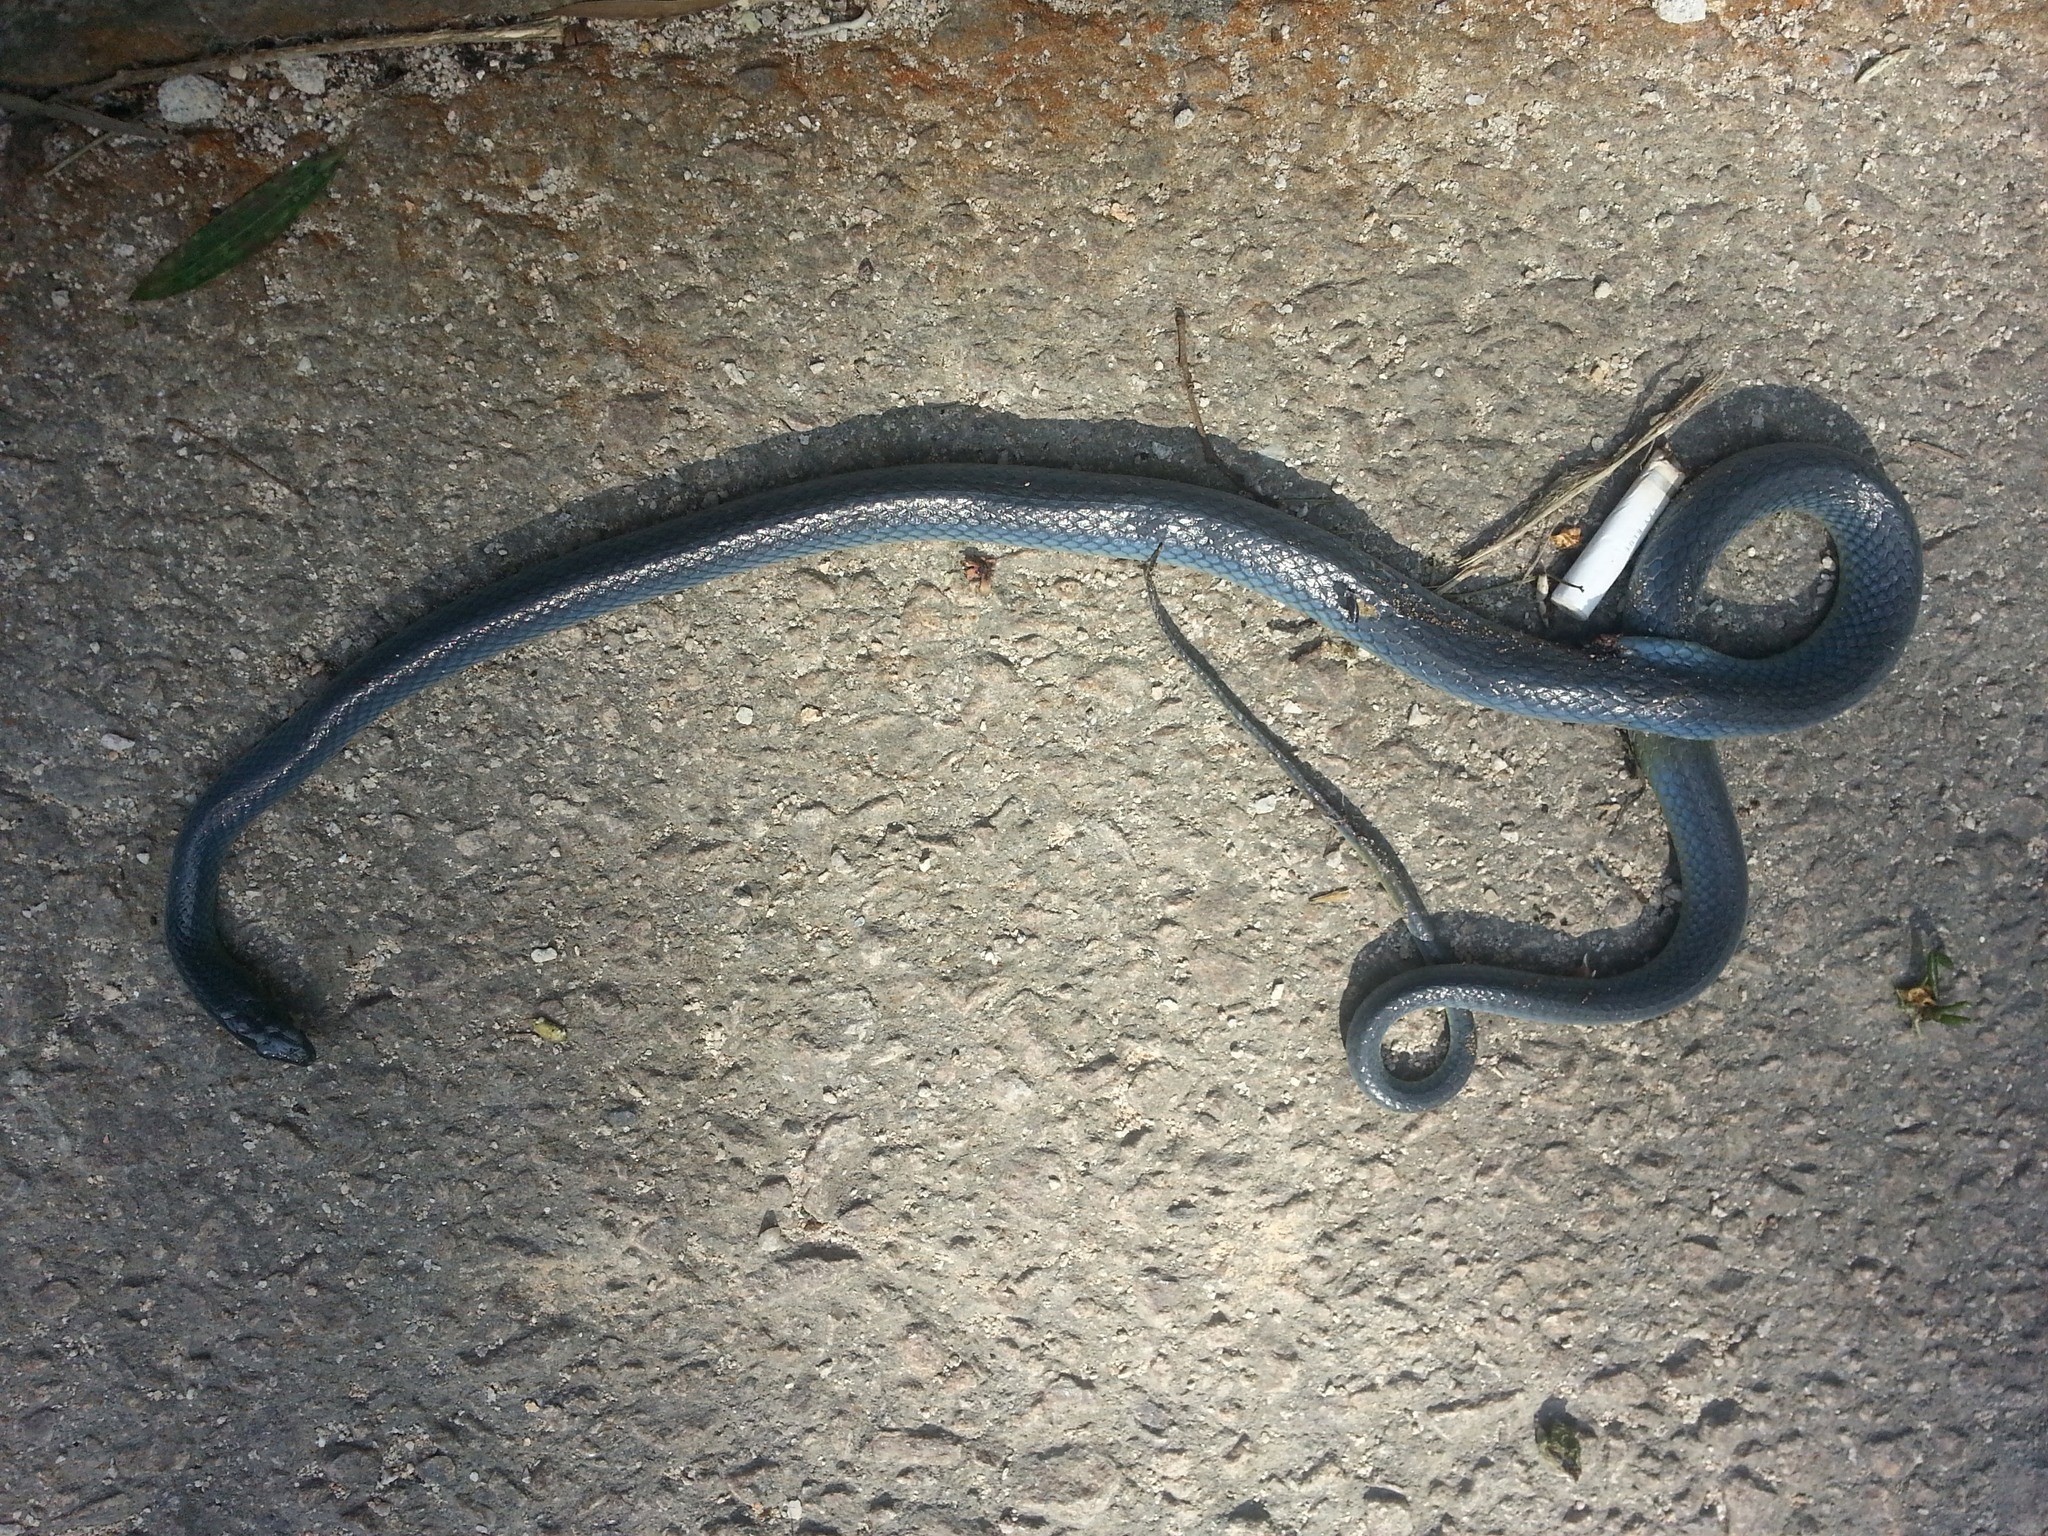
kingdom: Animalia
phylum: Chordata
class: Squamata
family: Colubridae
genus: Ptyas
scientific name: Ptyas major
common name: Chinese green snake
